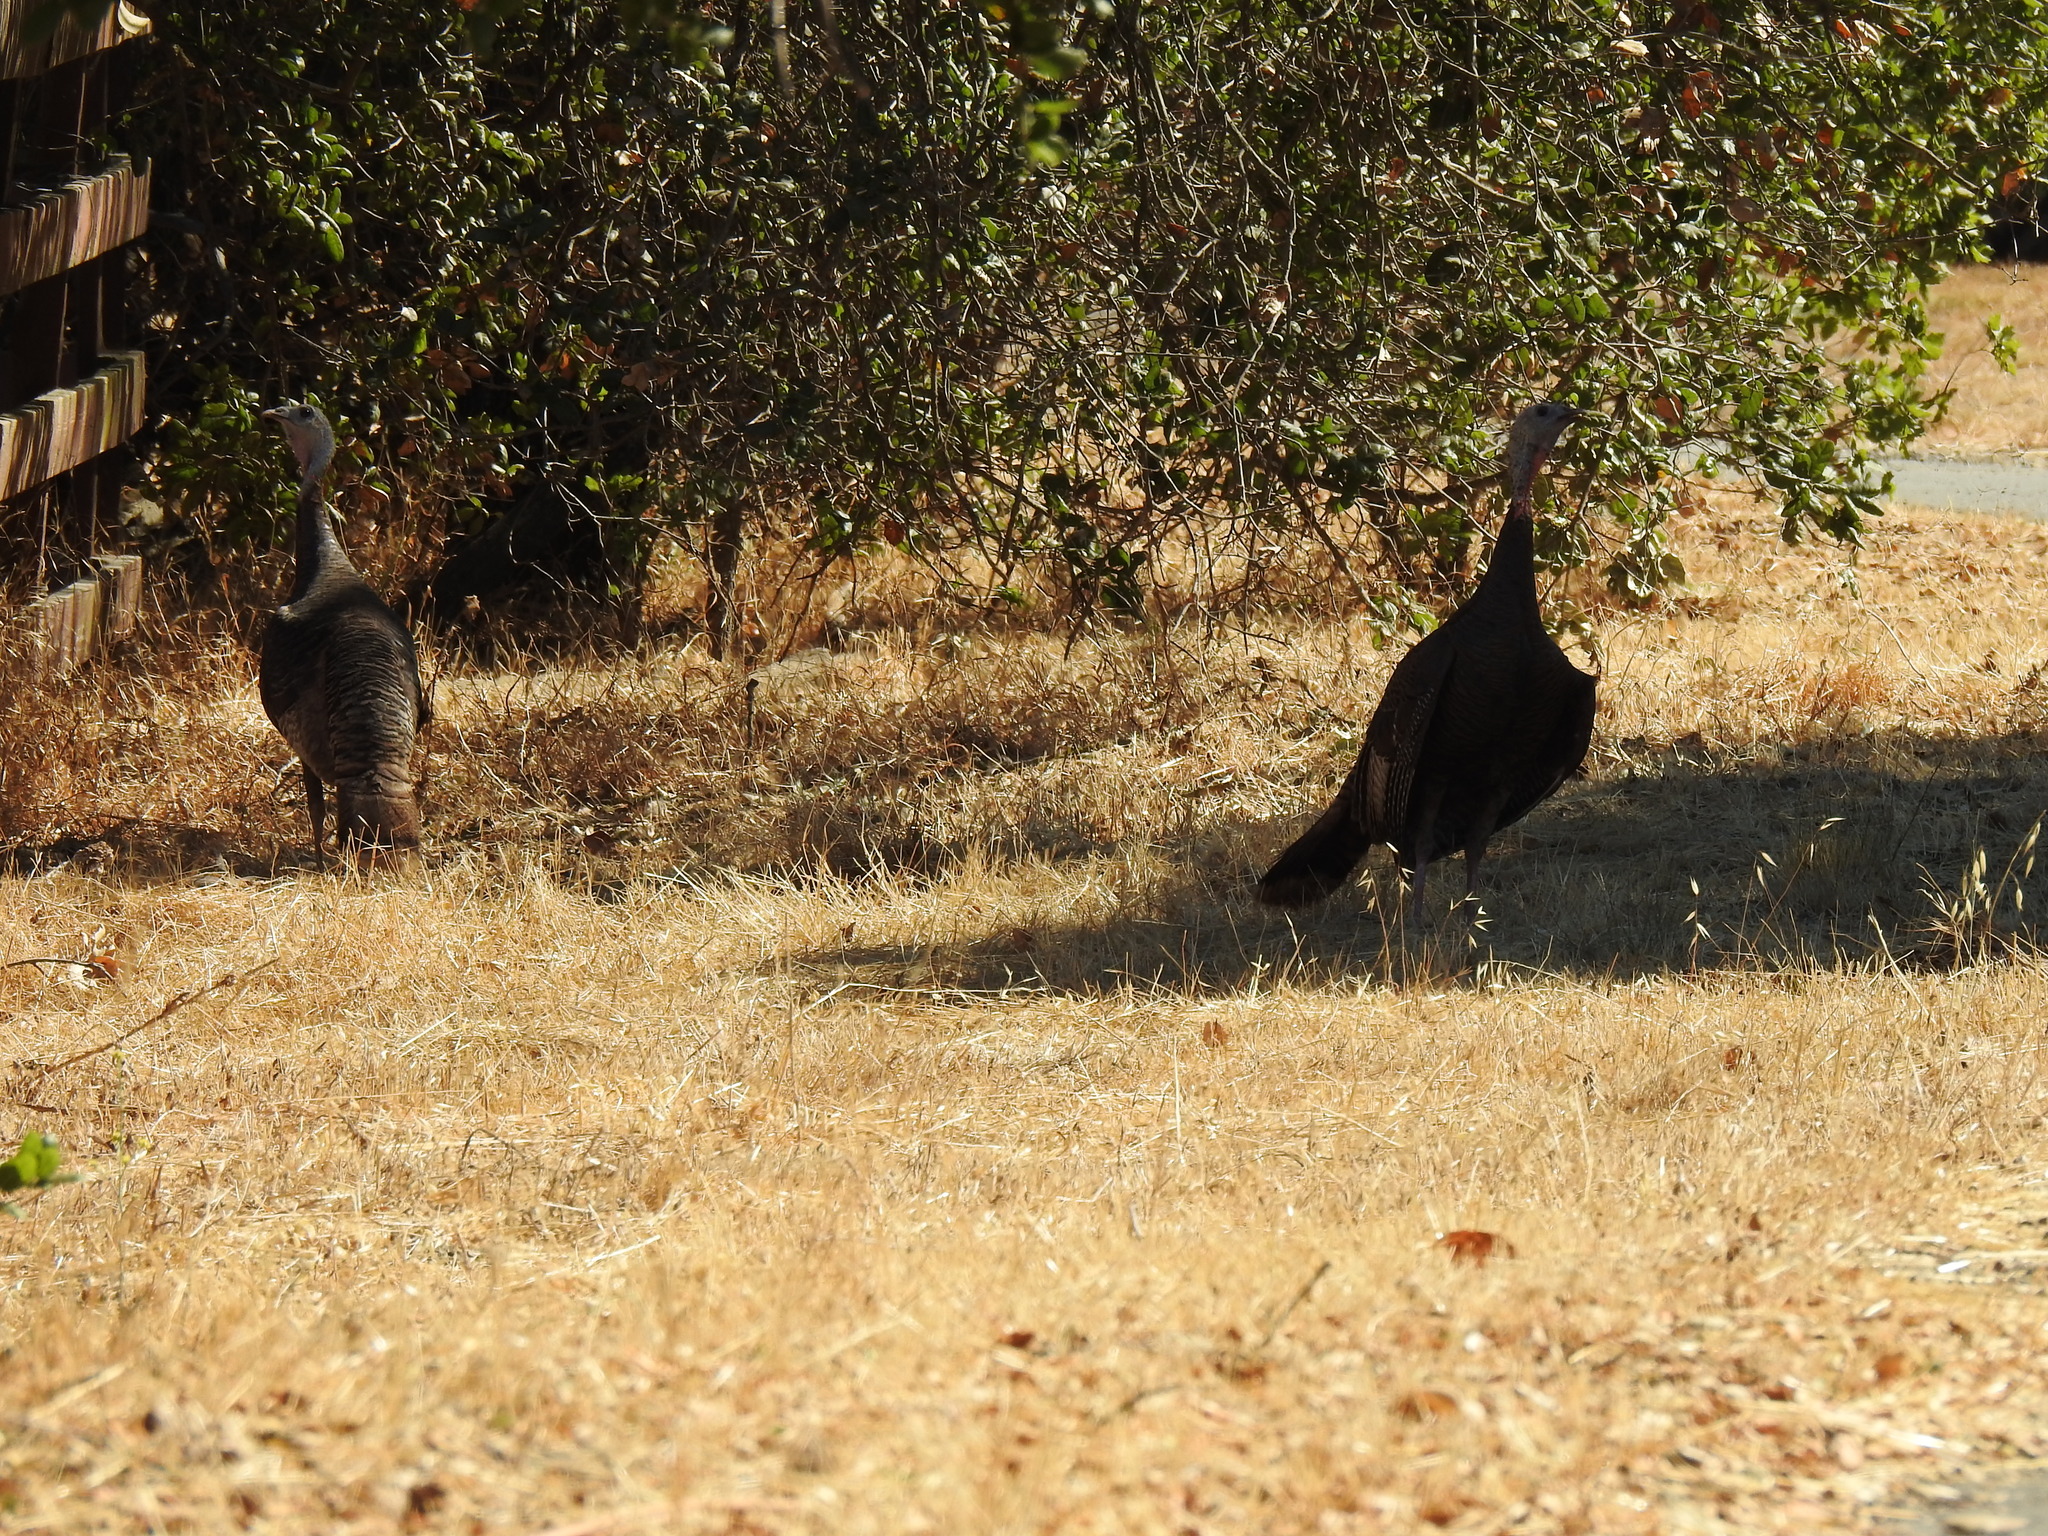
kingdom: Animalia
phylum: Chordata
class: Aves
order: Galliformes
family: Phasianidae
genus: Meleagris
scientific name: Meleagris gallopavo
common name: Wild turkey
